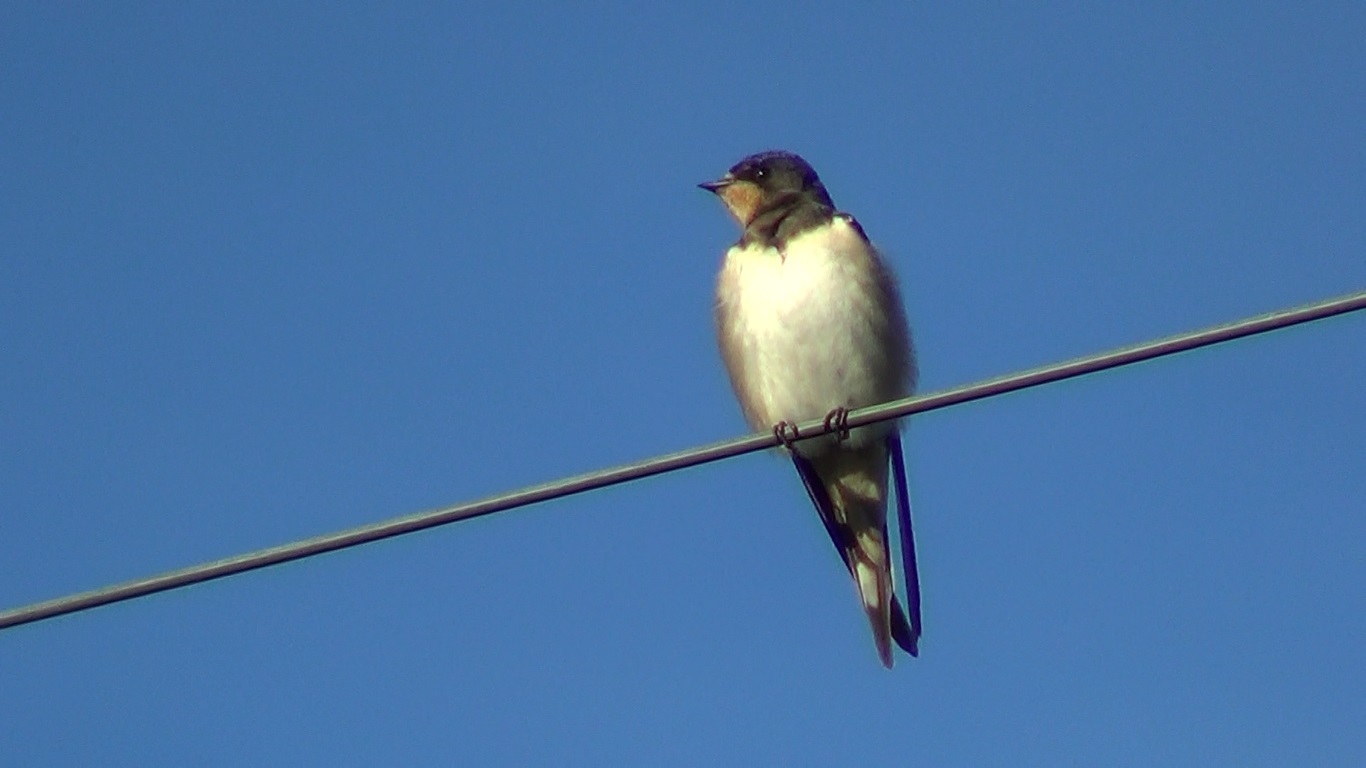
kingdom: Animalia
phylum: Chordata
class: Aves
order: Passeriformes
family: Hirundinidae
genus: Hirundo
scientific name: Hirundo rustica
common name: Barn swallow
